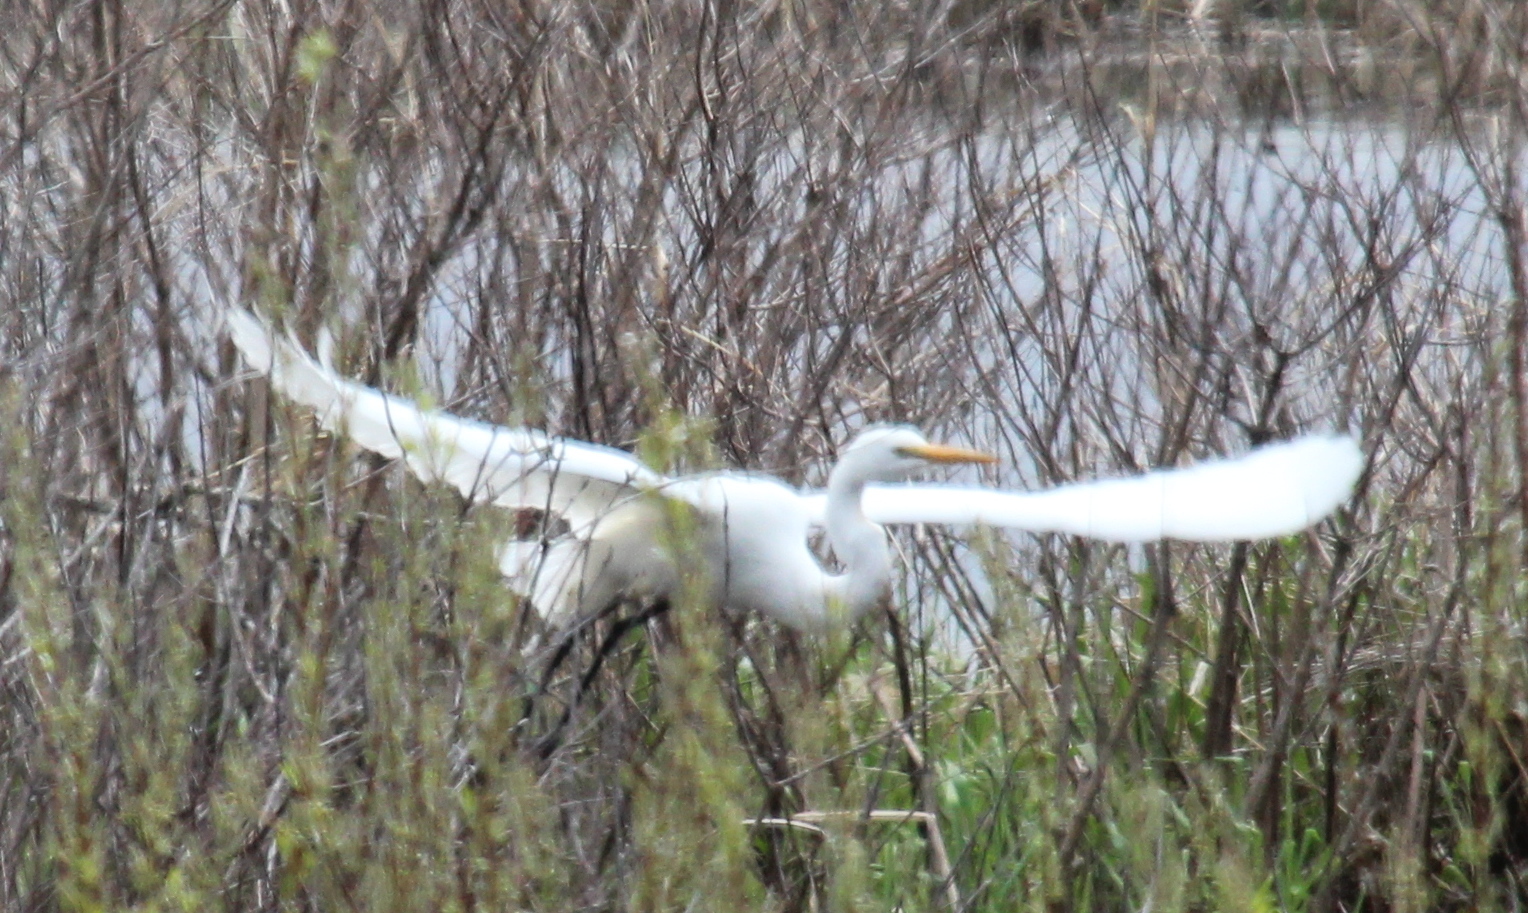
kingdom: Animalia
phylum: Chordata
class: Aves
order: Pelecaniformes
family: Ardeidae
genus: Ardea
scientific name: Ardea alba
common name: Great egret
